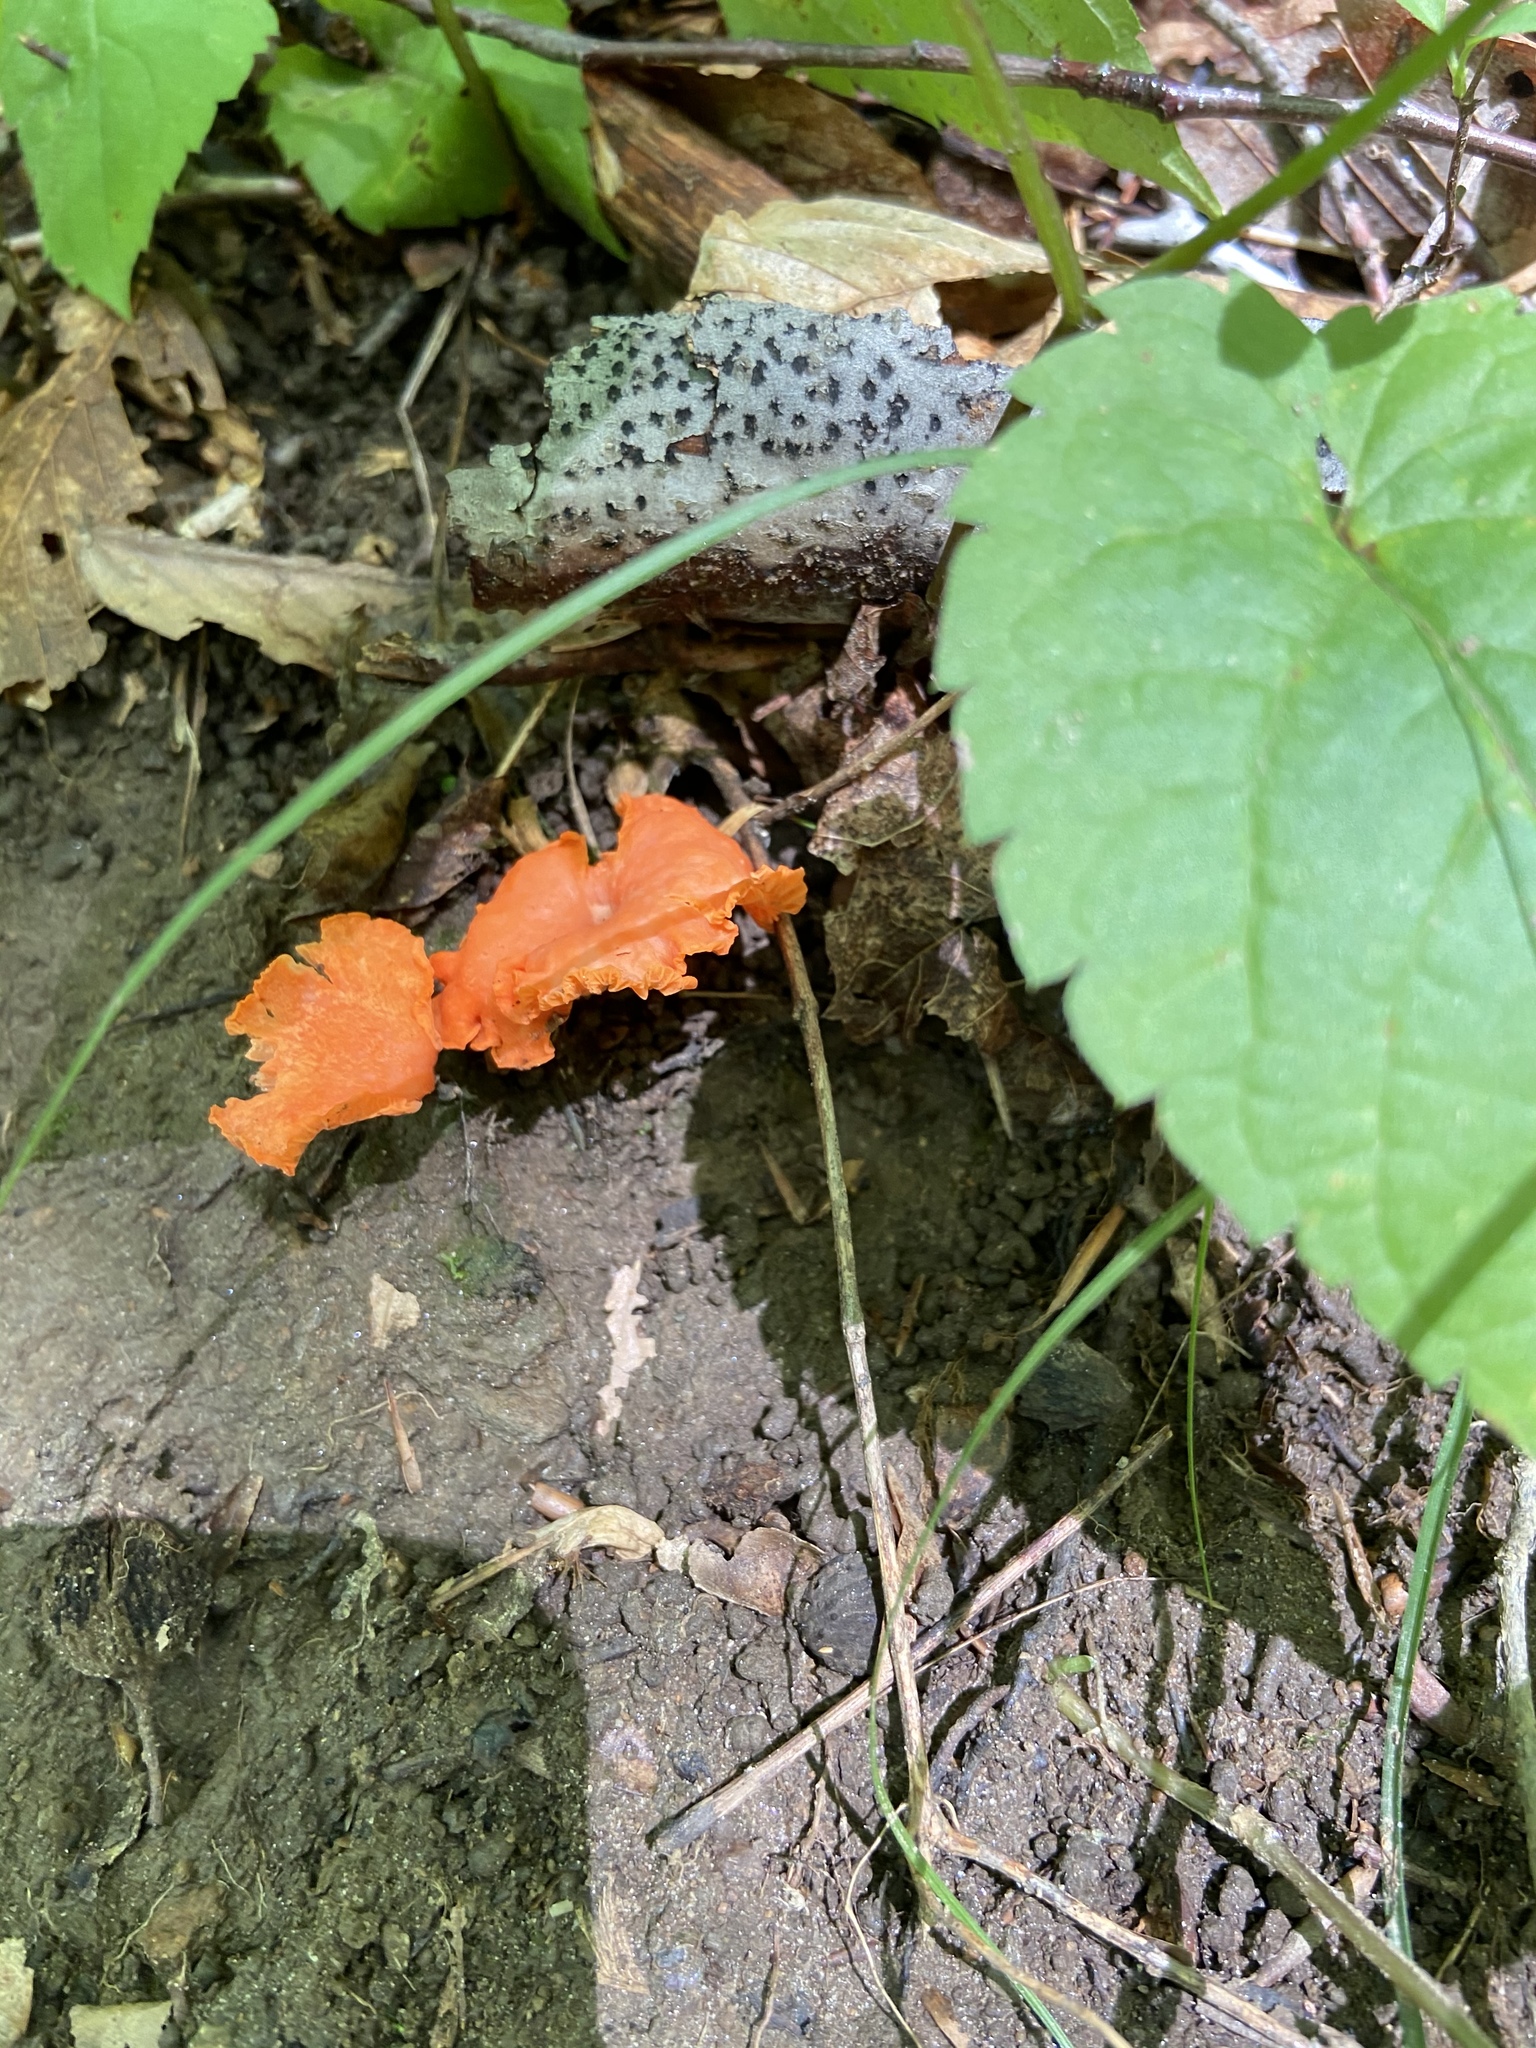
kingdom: Fungi
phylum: Basidiomycota
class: Agaricomycetes
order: Cantharellales
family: Hydnaceae
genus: Cantharellus
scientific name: Cantharellus cinnabarinus
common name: Cinnabar chanterelle
